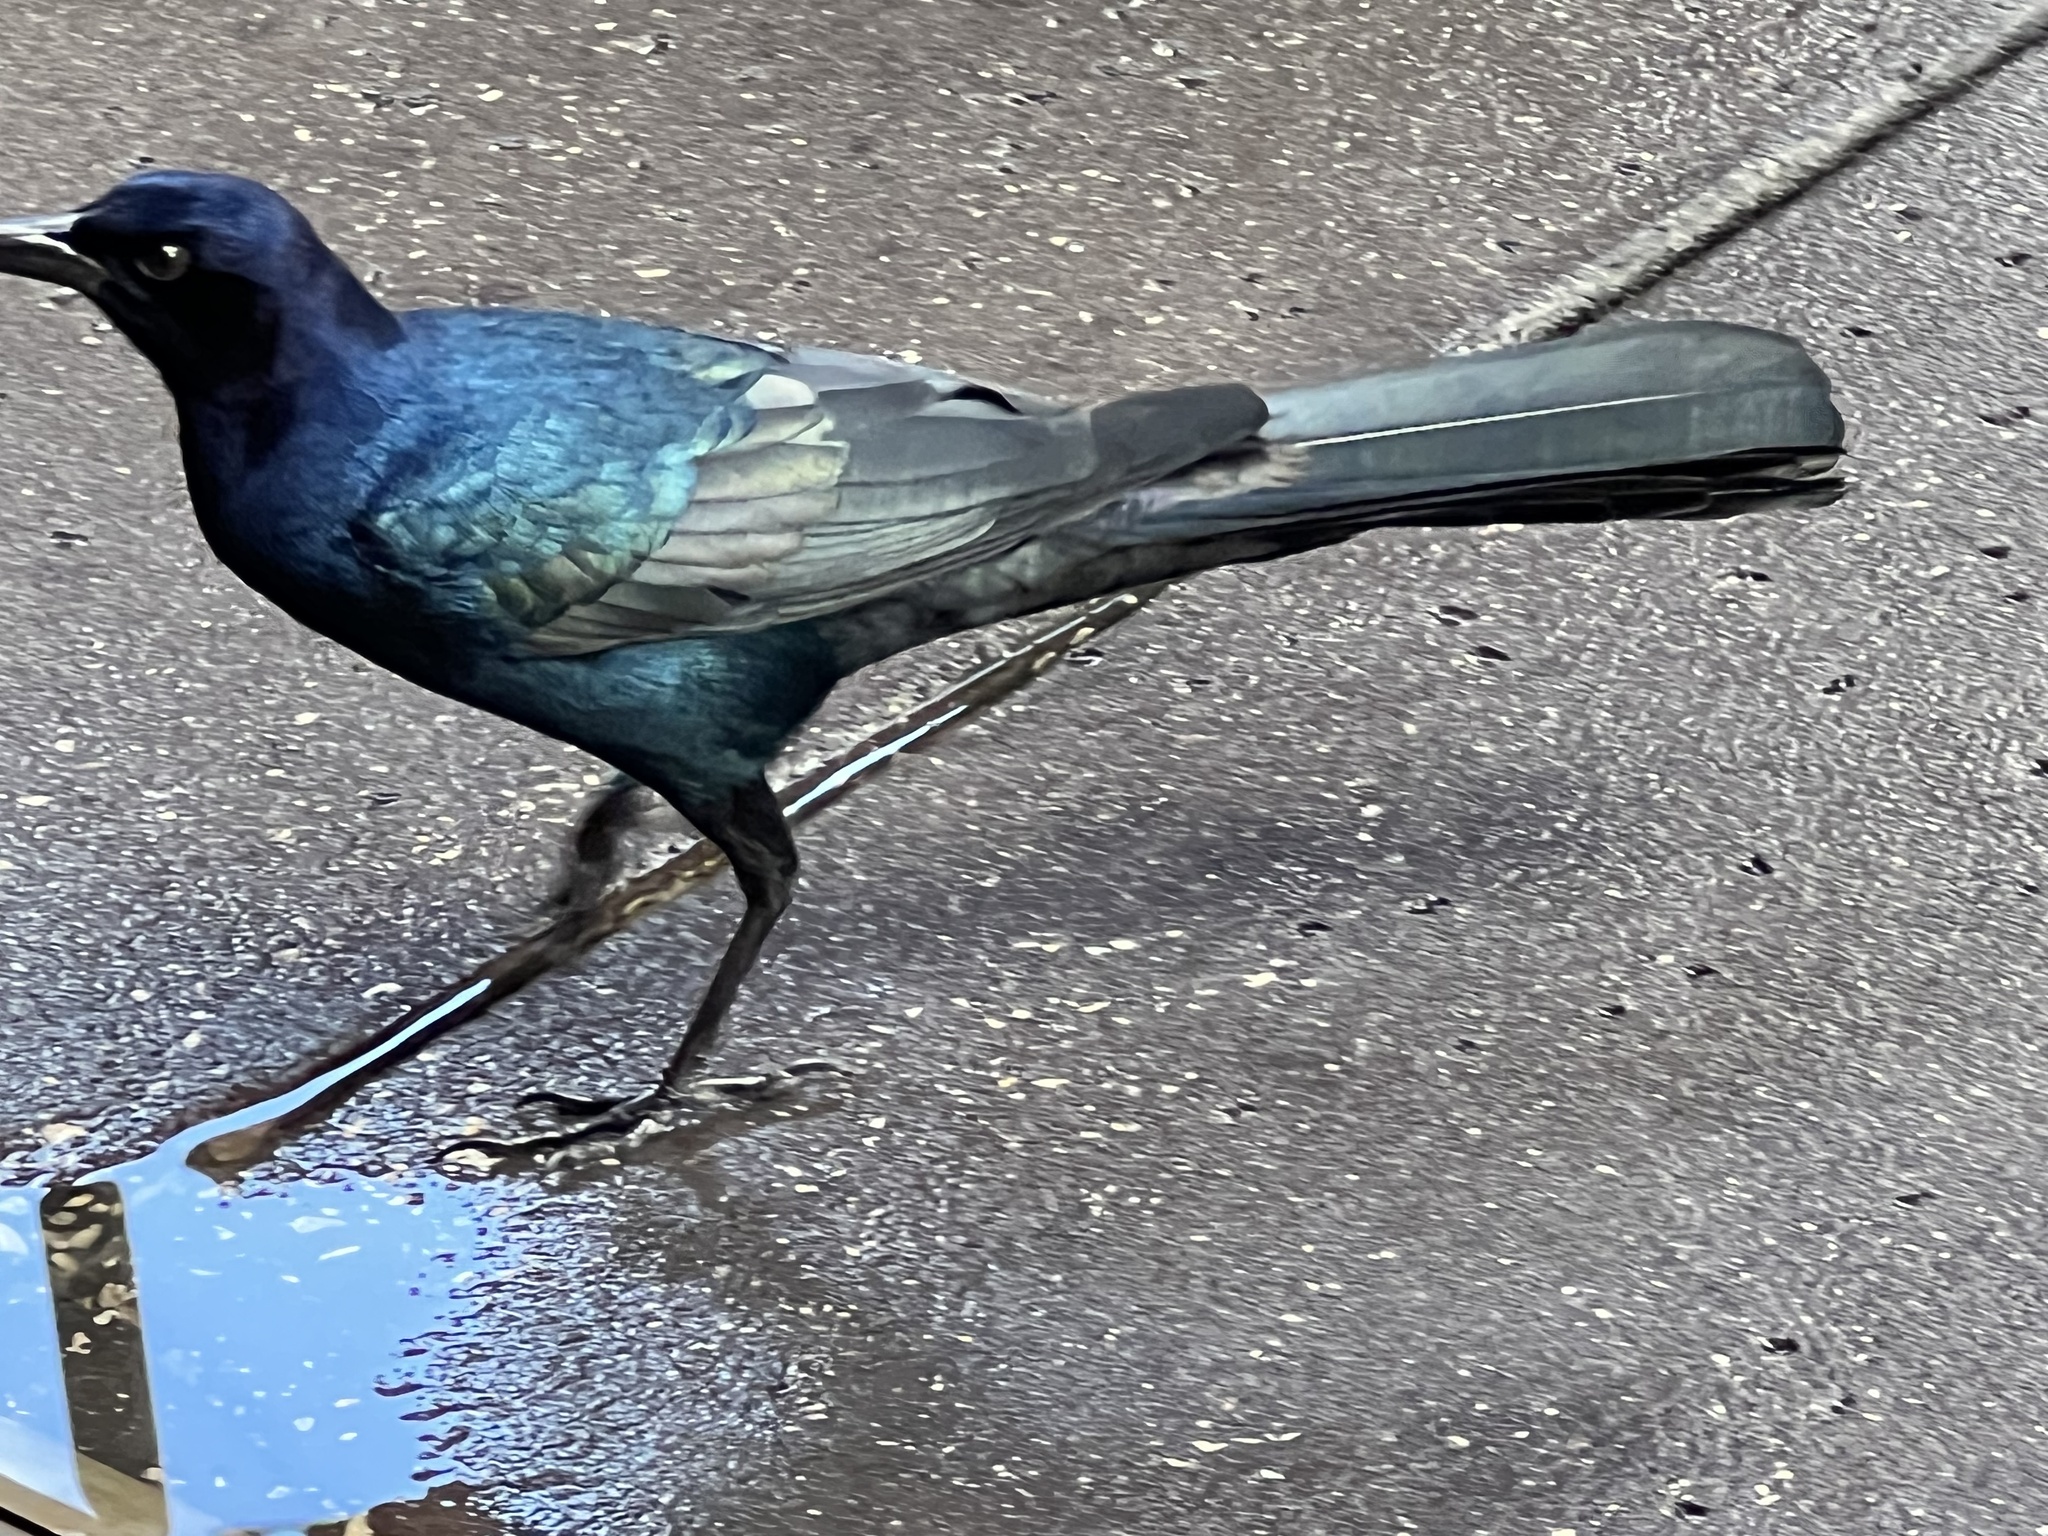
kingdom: Animalia
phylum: Chordata
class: Aves
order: Passeriformes
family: Icteridae
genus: Quiscalus
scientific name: Quiscalus major
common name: Boat-tailed grackle
